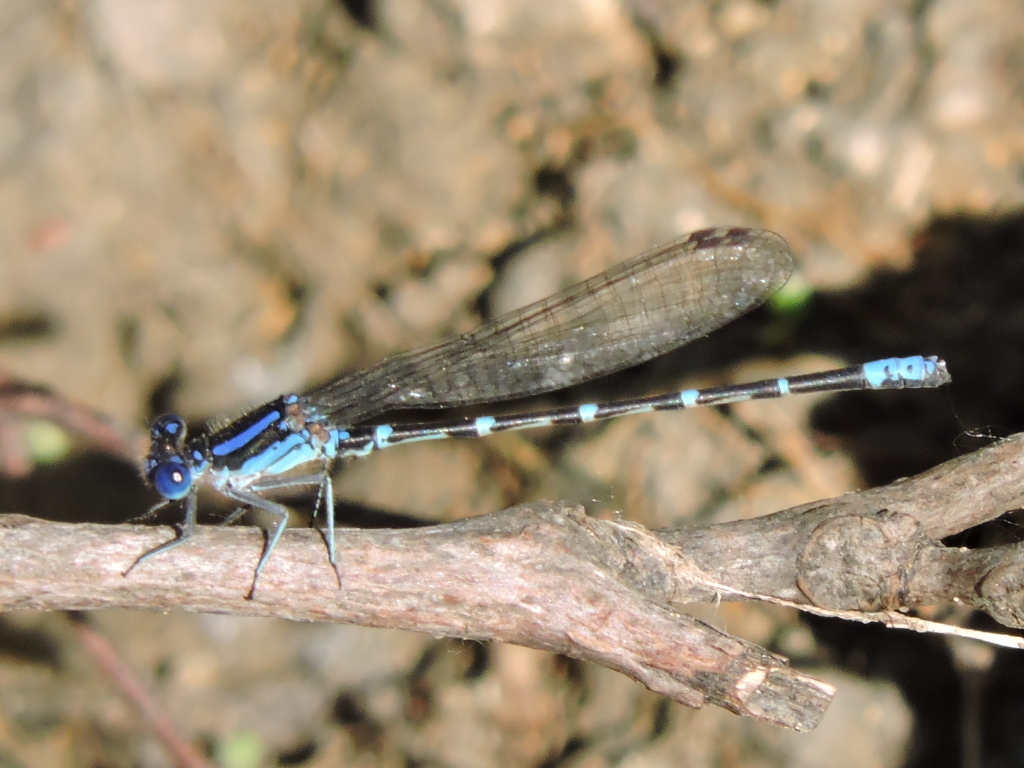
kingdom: Animalia
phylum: Arthropoda
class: Insecta
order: Odonata
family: Coenagrionidae
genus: Argia
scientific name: Argia sedula
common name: Blue-ringed dancer
